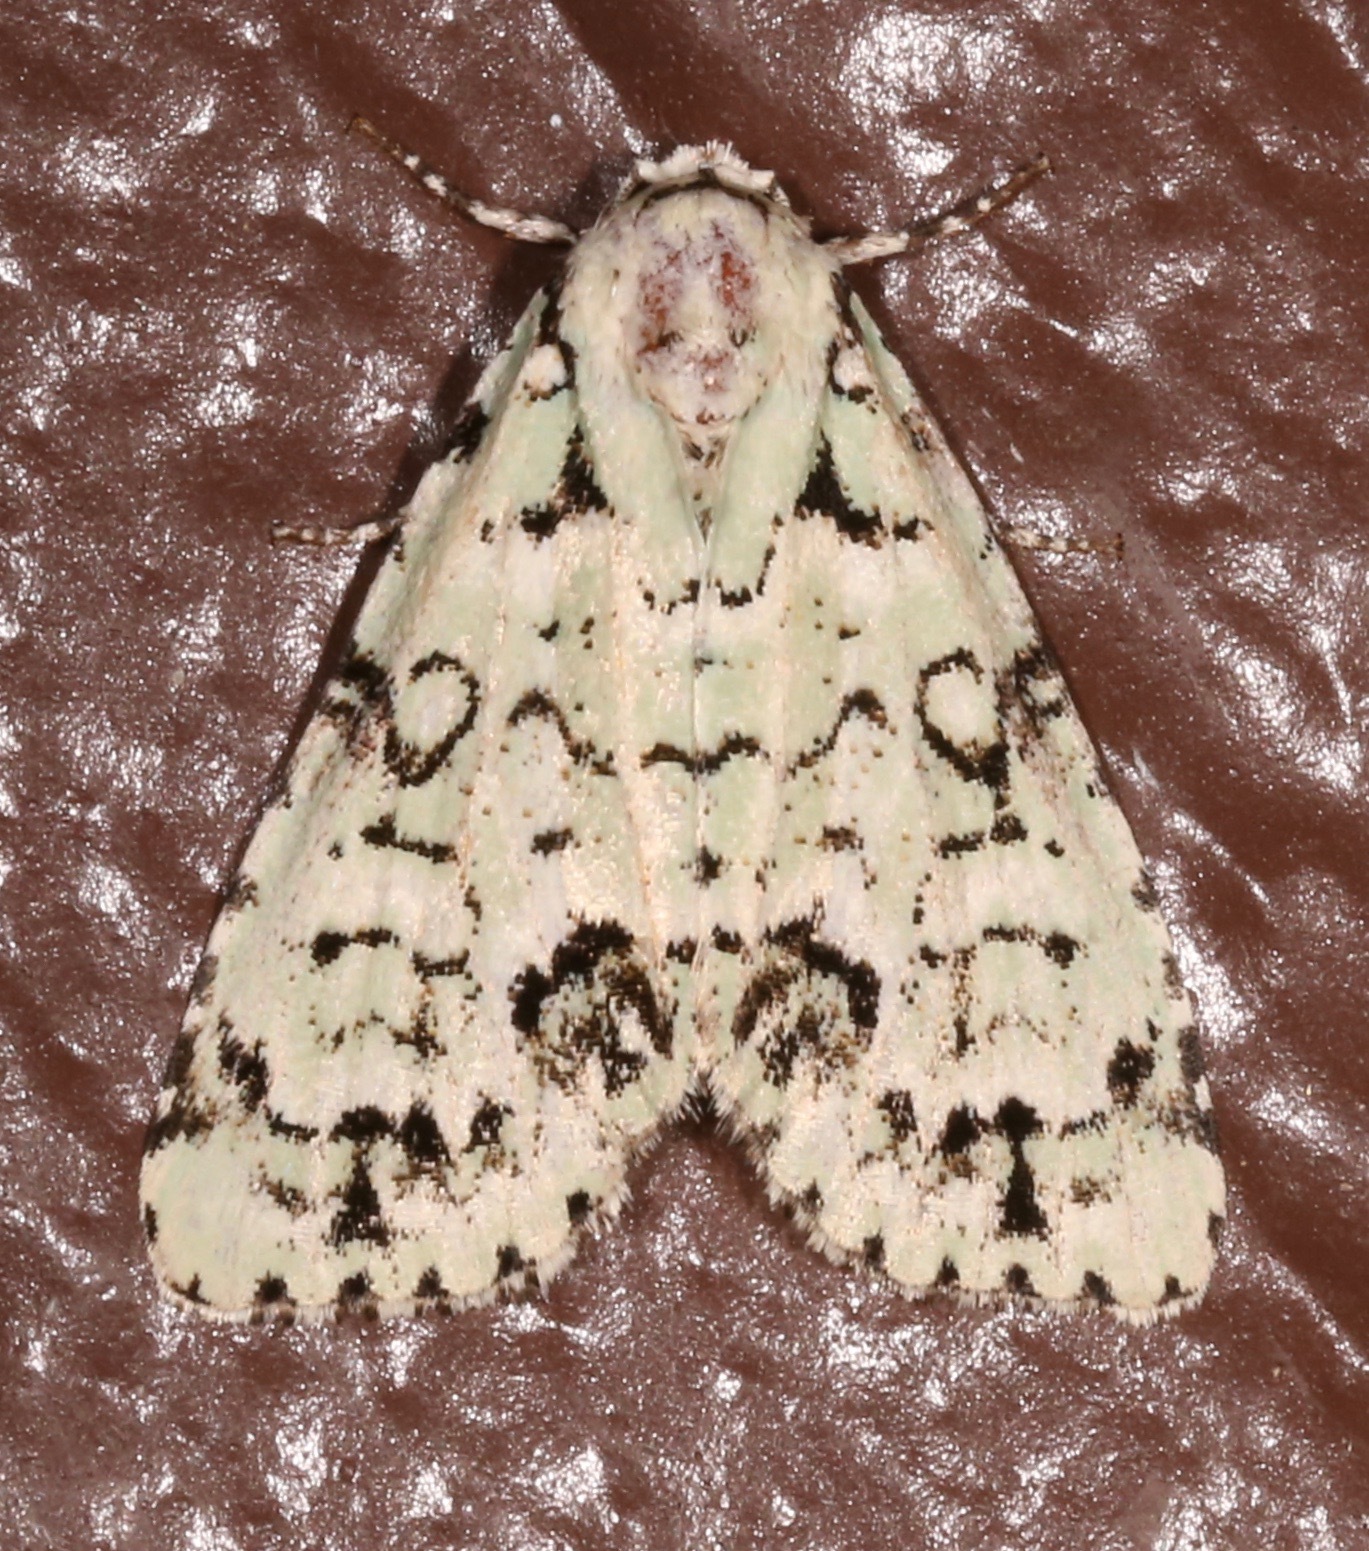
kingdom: Animalia
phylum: Arthropoda
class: Insecta
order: Lepidoptera
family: Noctuidae
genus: Chloronycta
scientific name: Chloronycta tybo
